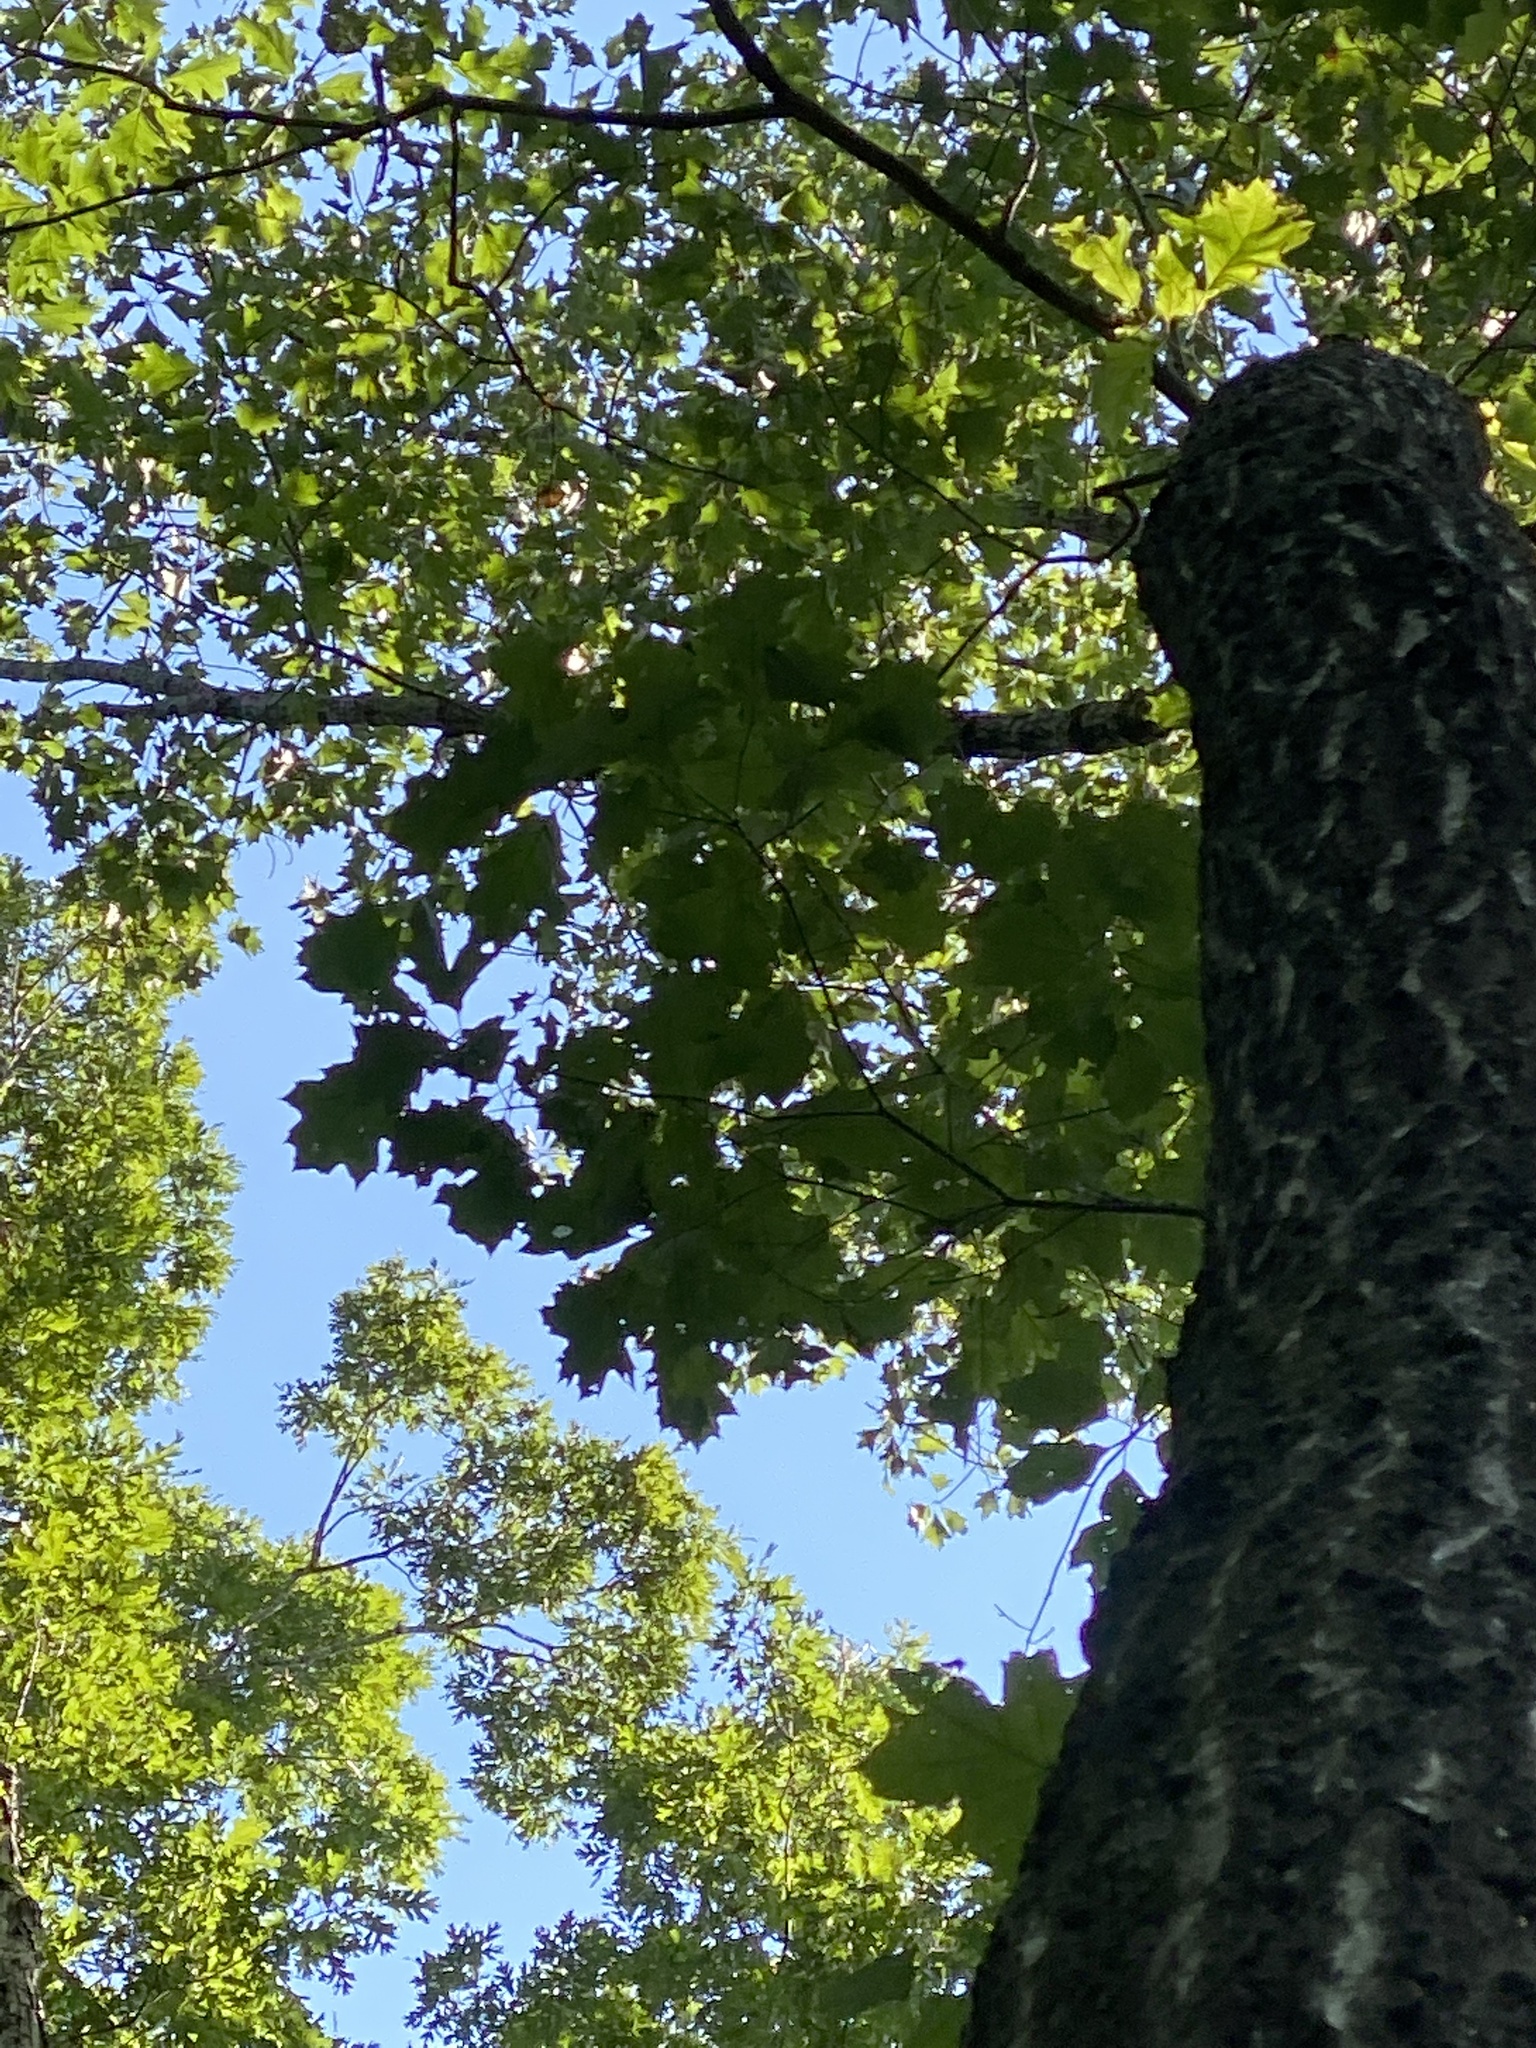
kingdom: Plantae
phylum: Tracheophyta
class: Magnoliopsida
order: Fagales
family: Fagaceae
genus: Quercus
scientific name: Quercus velutina
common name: Black oak
